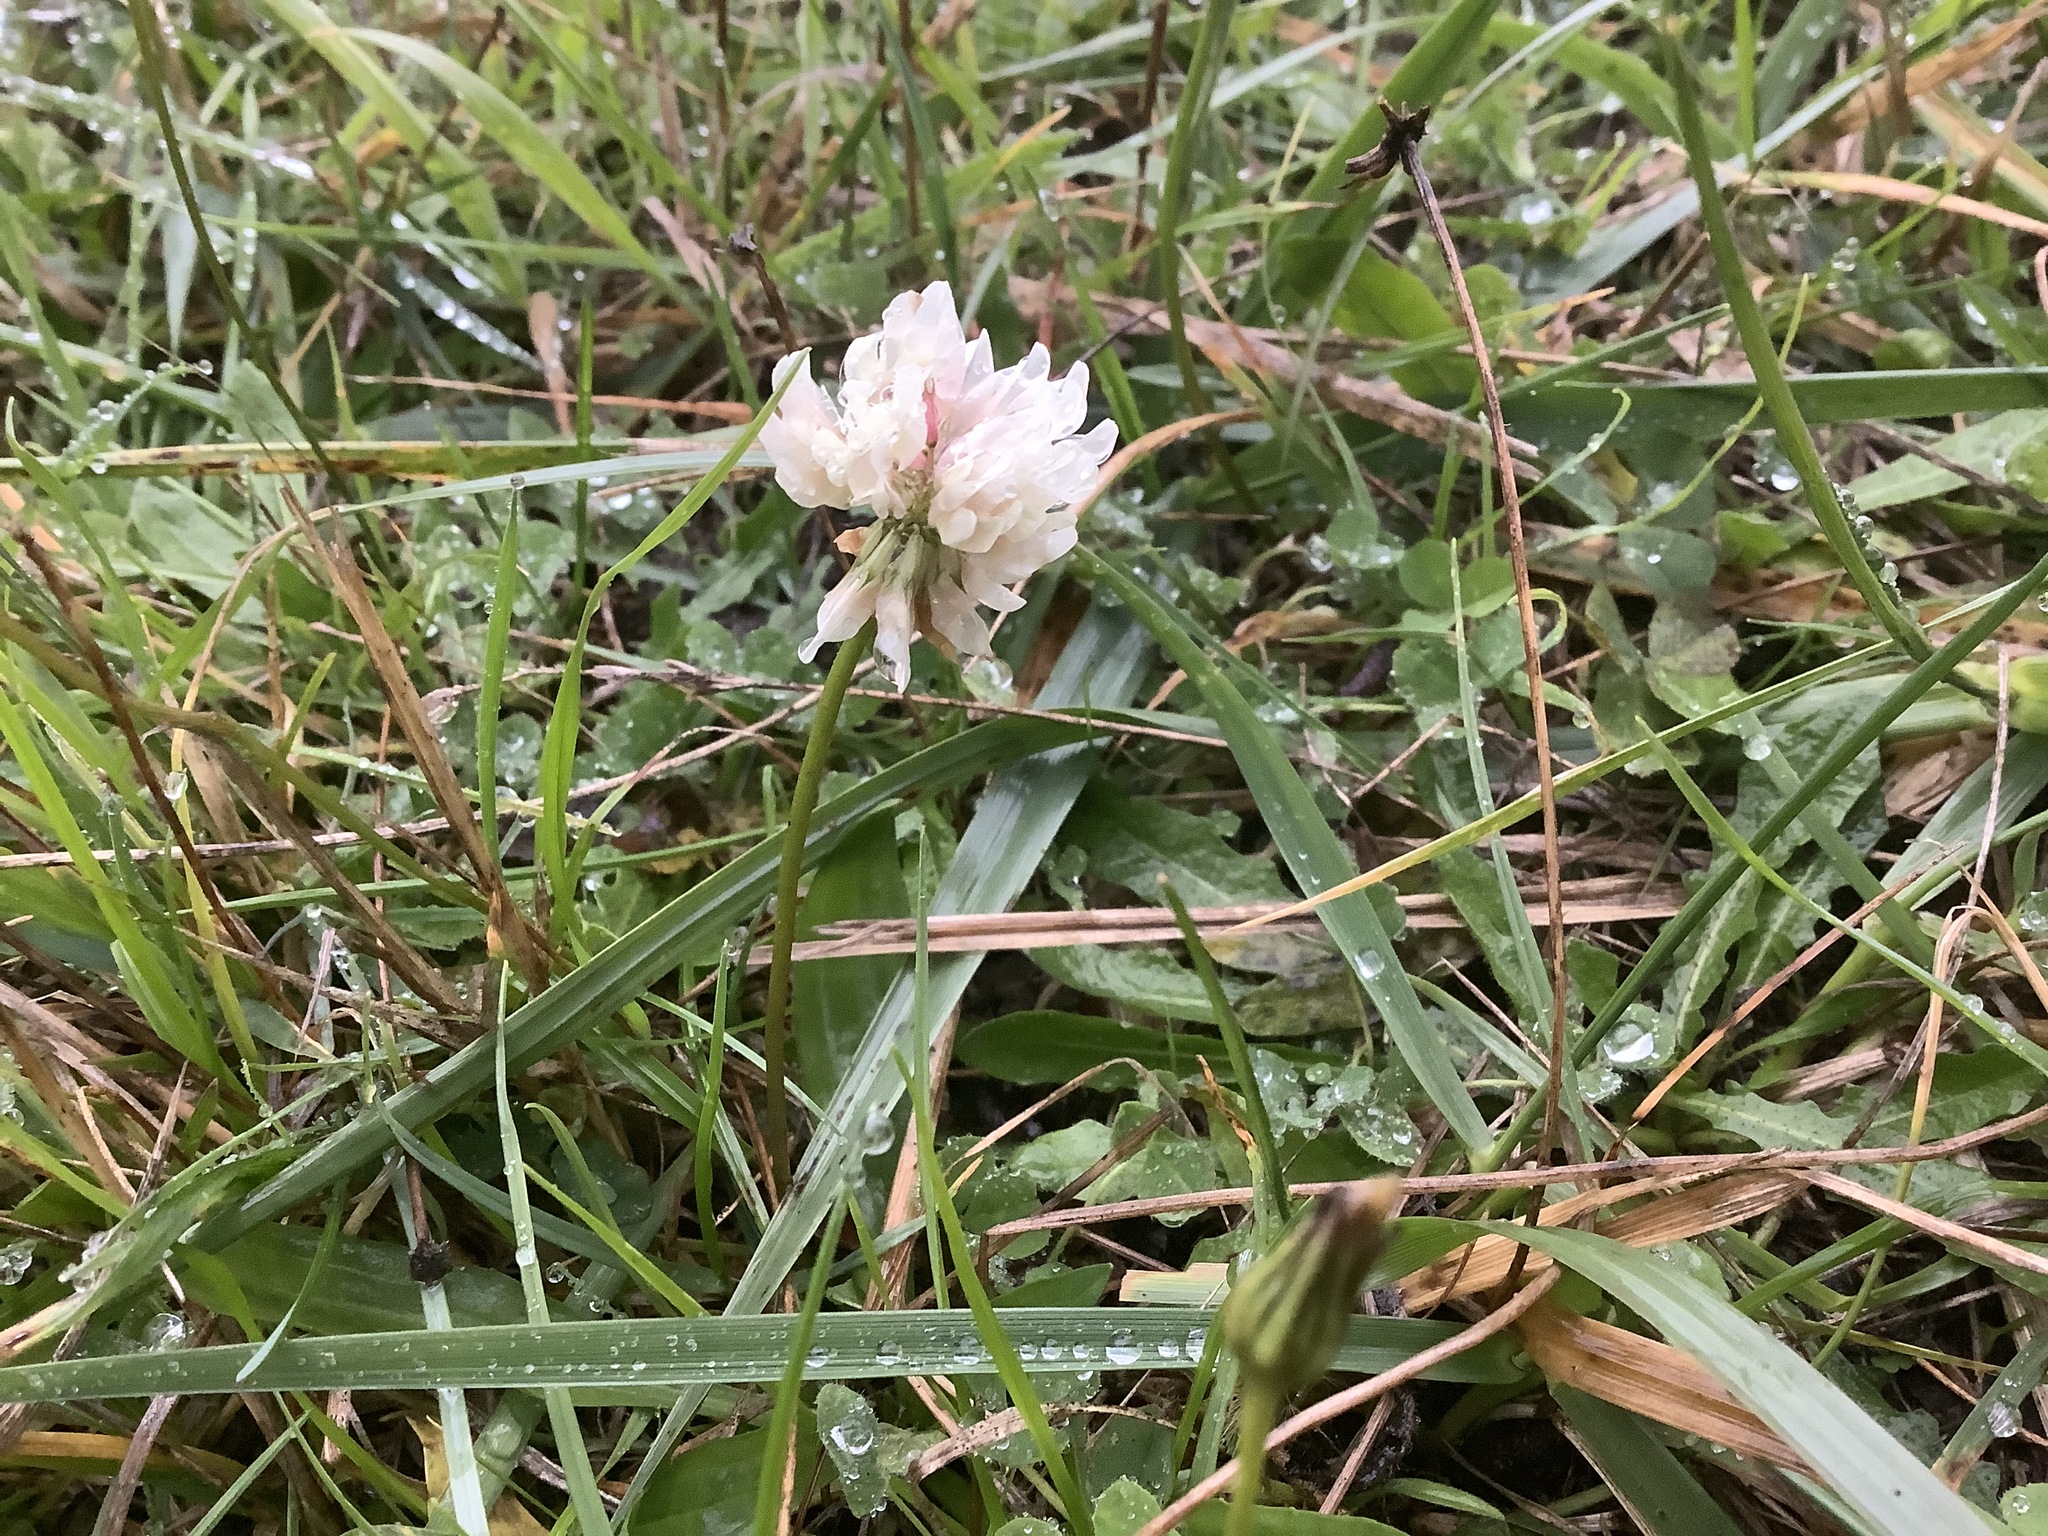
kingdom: Plantae
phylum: Tracheophyta
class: Magnoliopsida
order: Fabales
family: Fabaceae
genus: Trifolium
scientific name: Trifolium repens
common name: White clover
